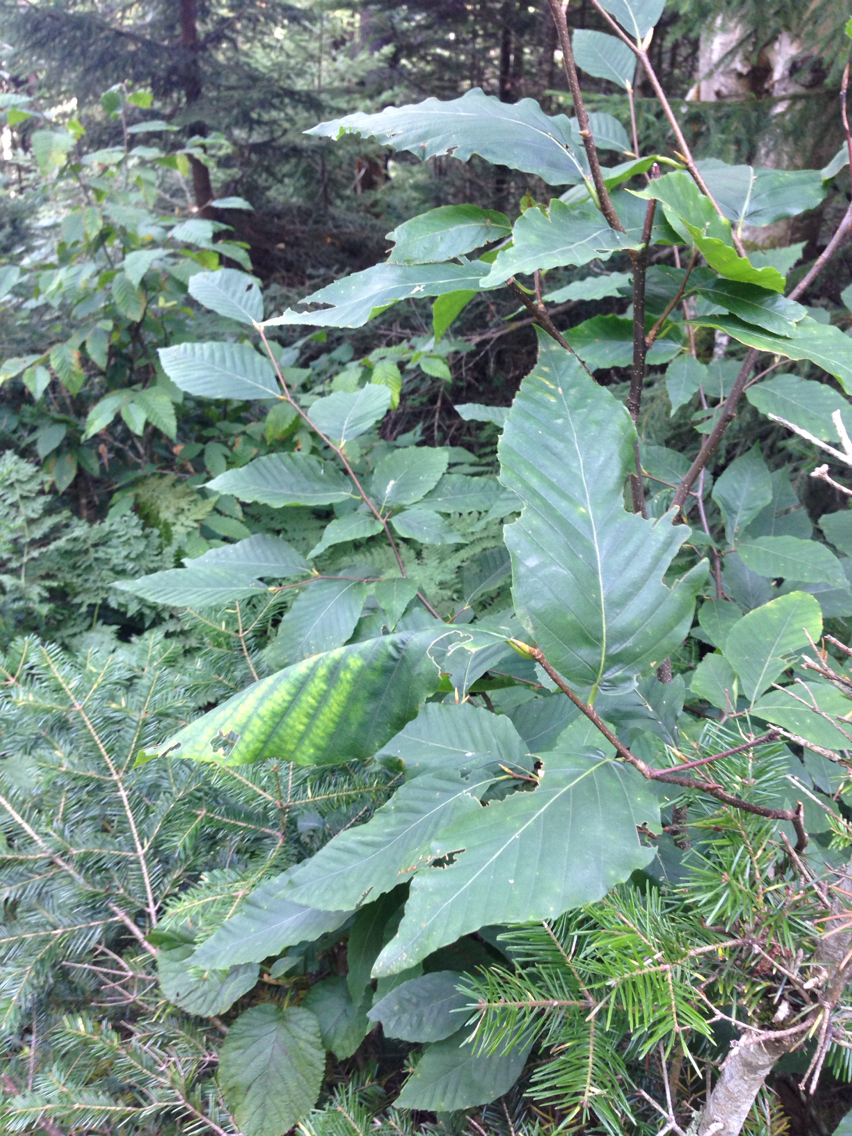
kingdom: Plantae
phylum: Tracheophyta
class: Magnoliopsida
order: Fagales
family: Fagaceae
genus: Fagus
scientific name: Fagus grandifolia
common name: American beech
